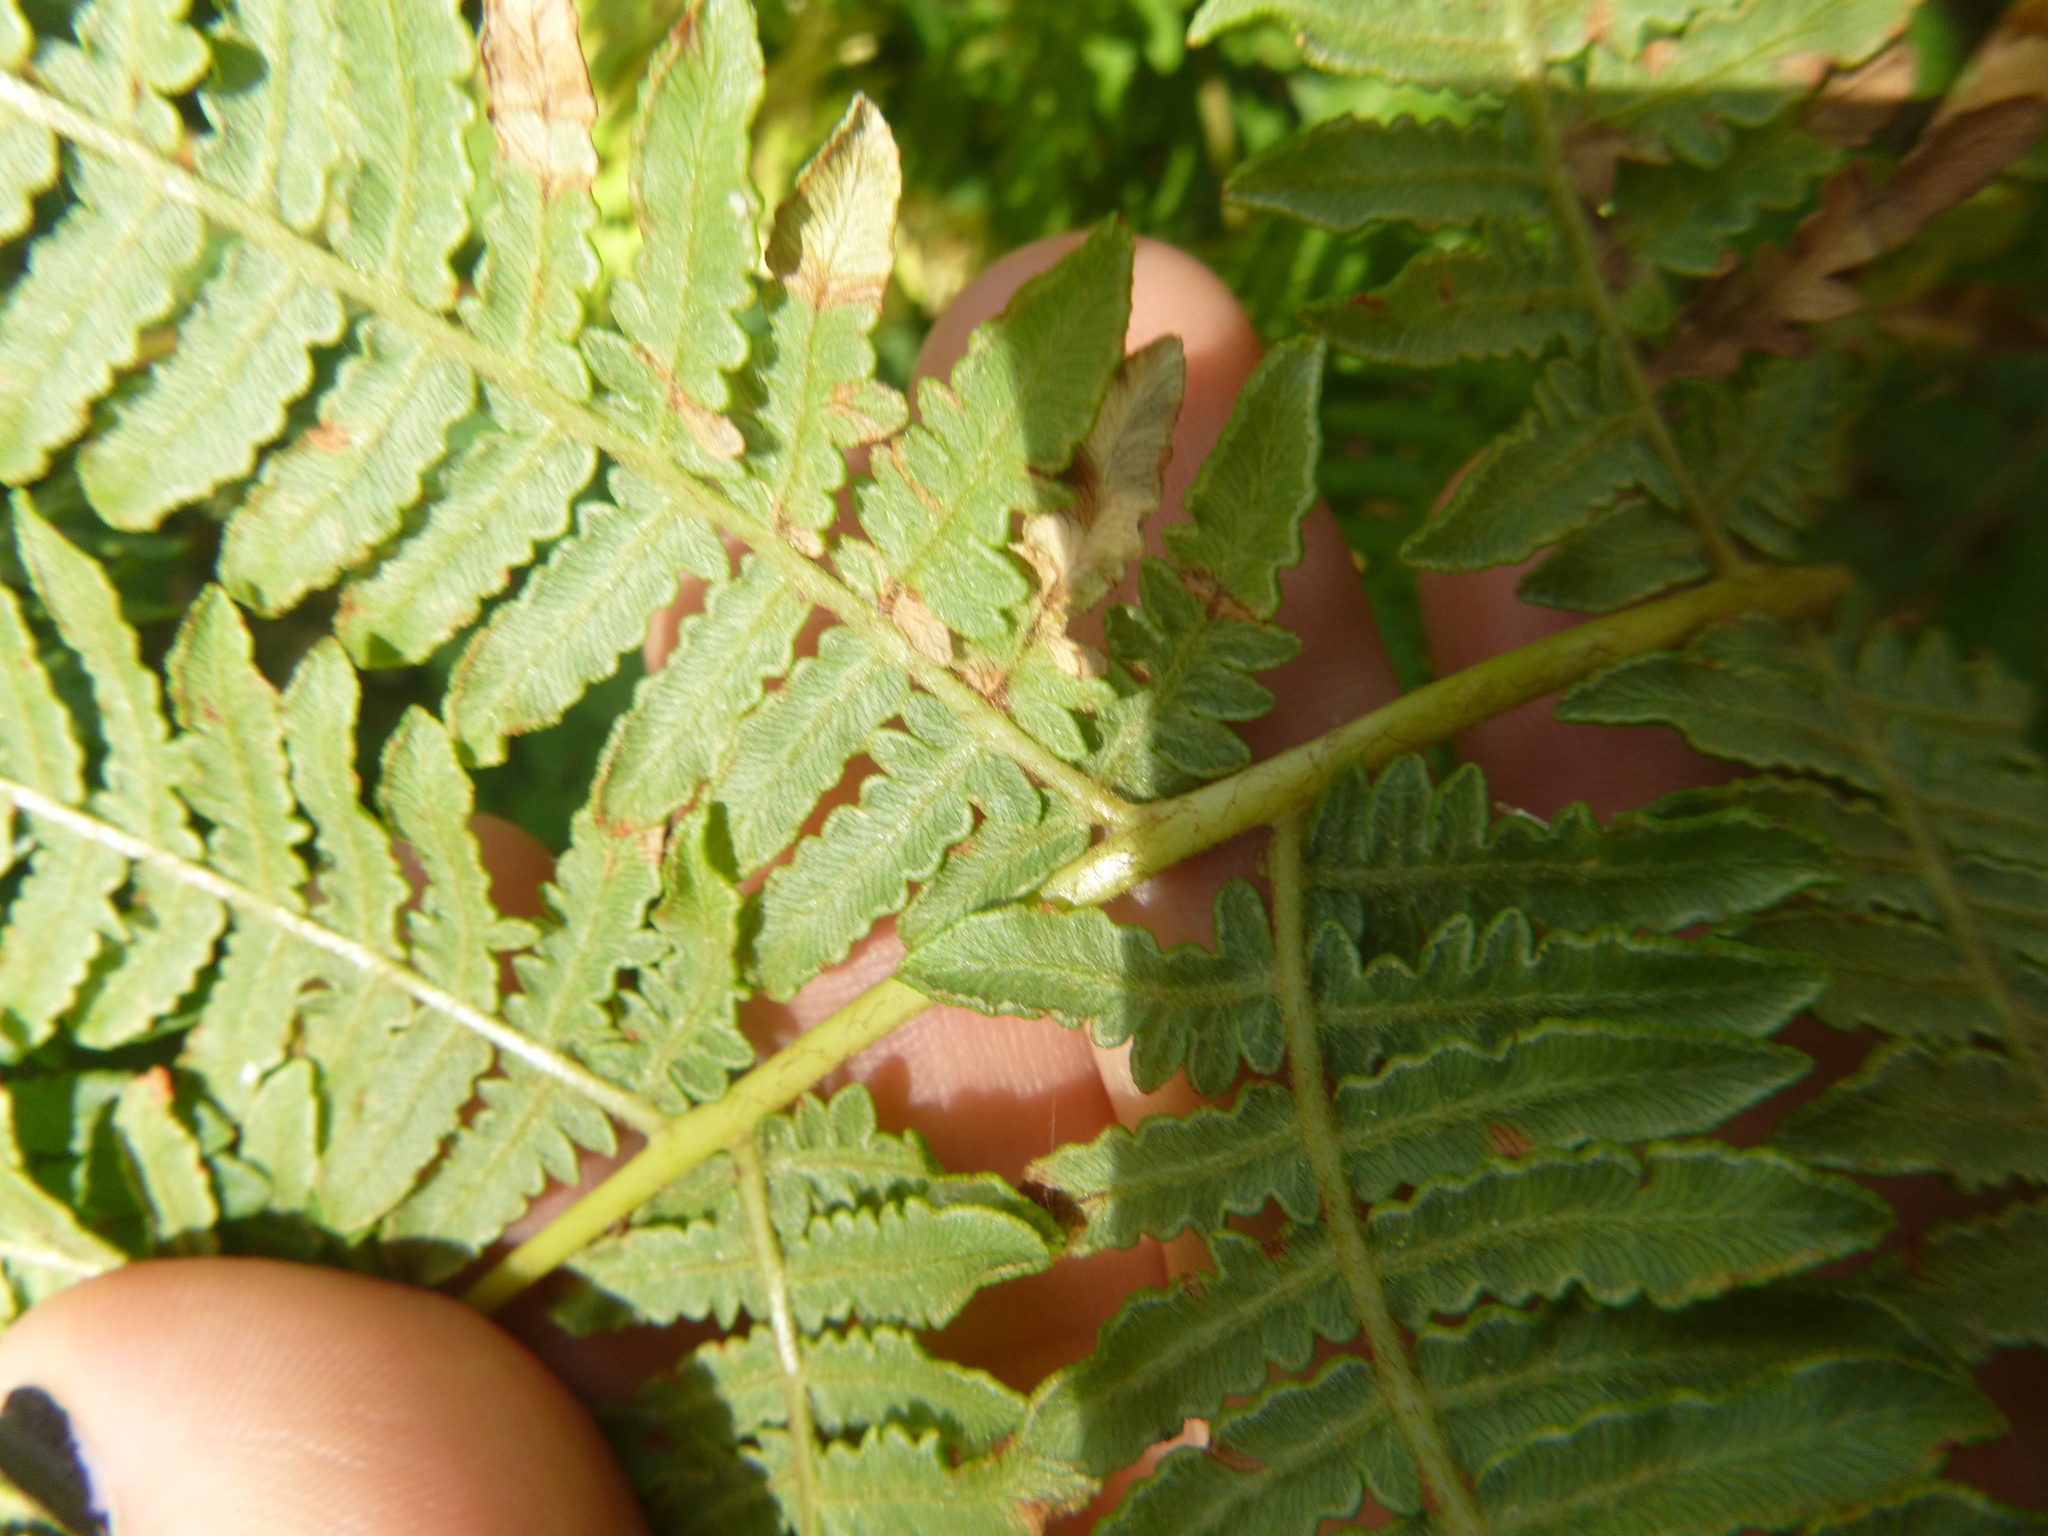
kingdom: Plantae
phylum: Tracheophyta
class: Polypodiopsida
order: Polypodiales
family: Dennstaedtiaceae
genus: Pteridium
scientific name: Pteridium aquilinum
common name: Bracken
